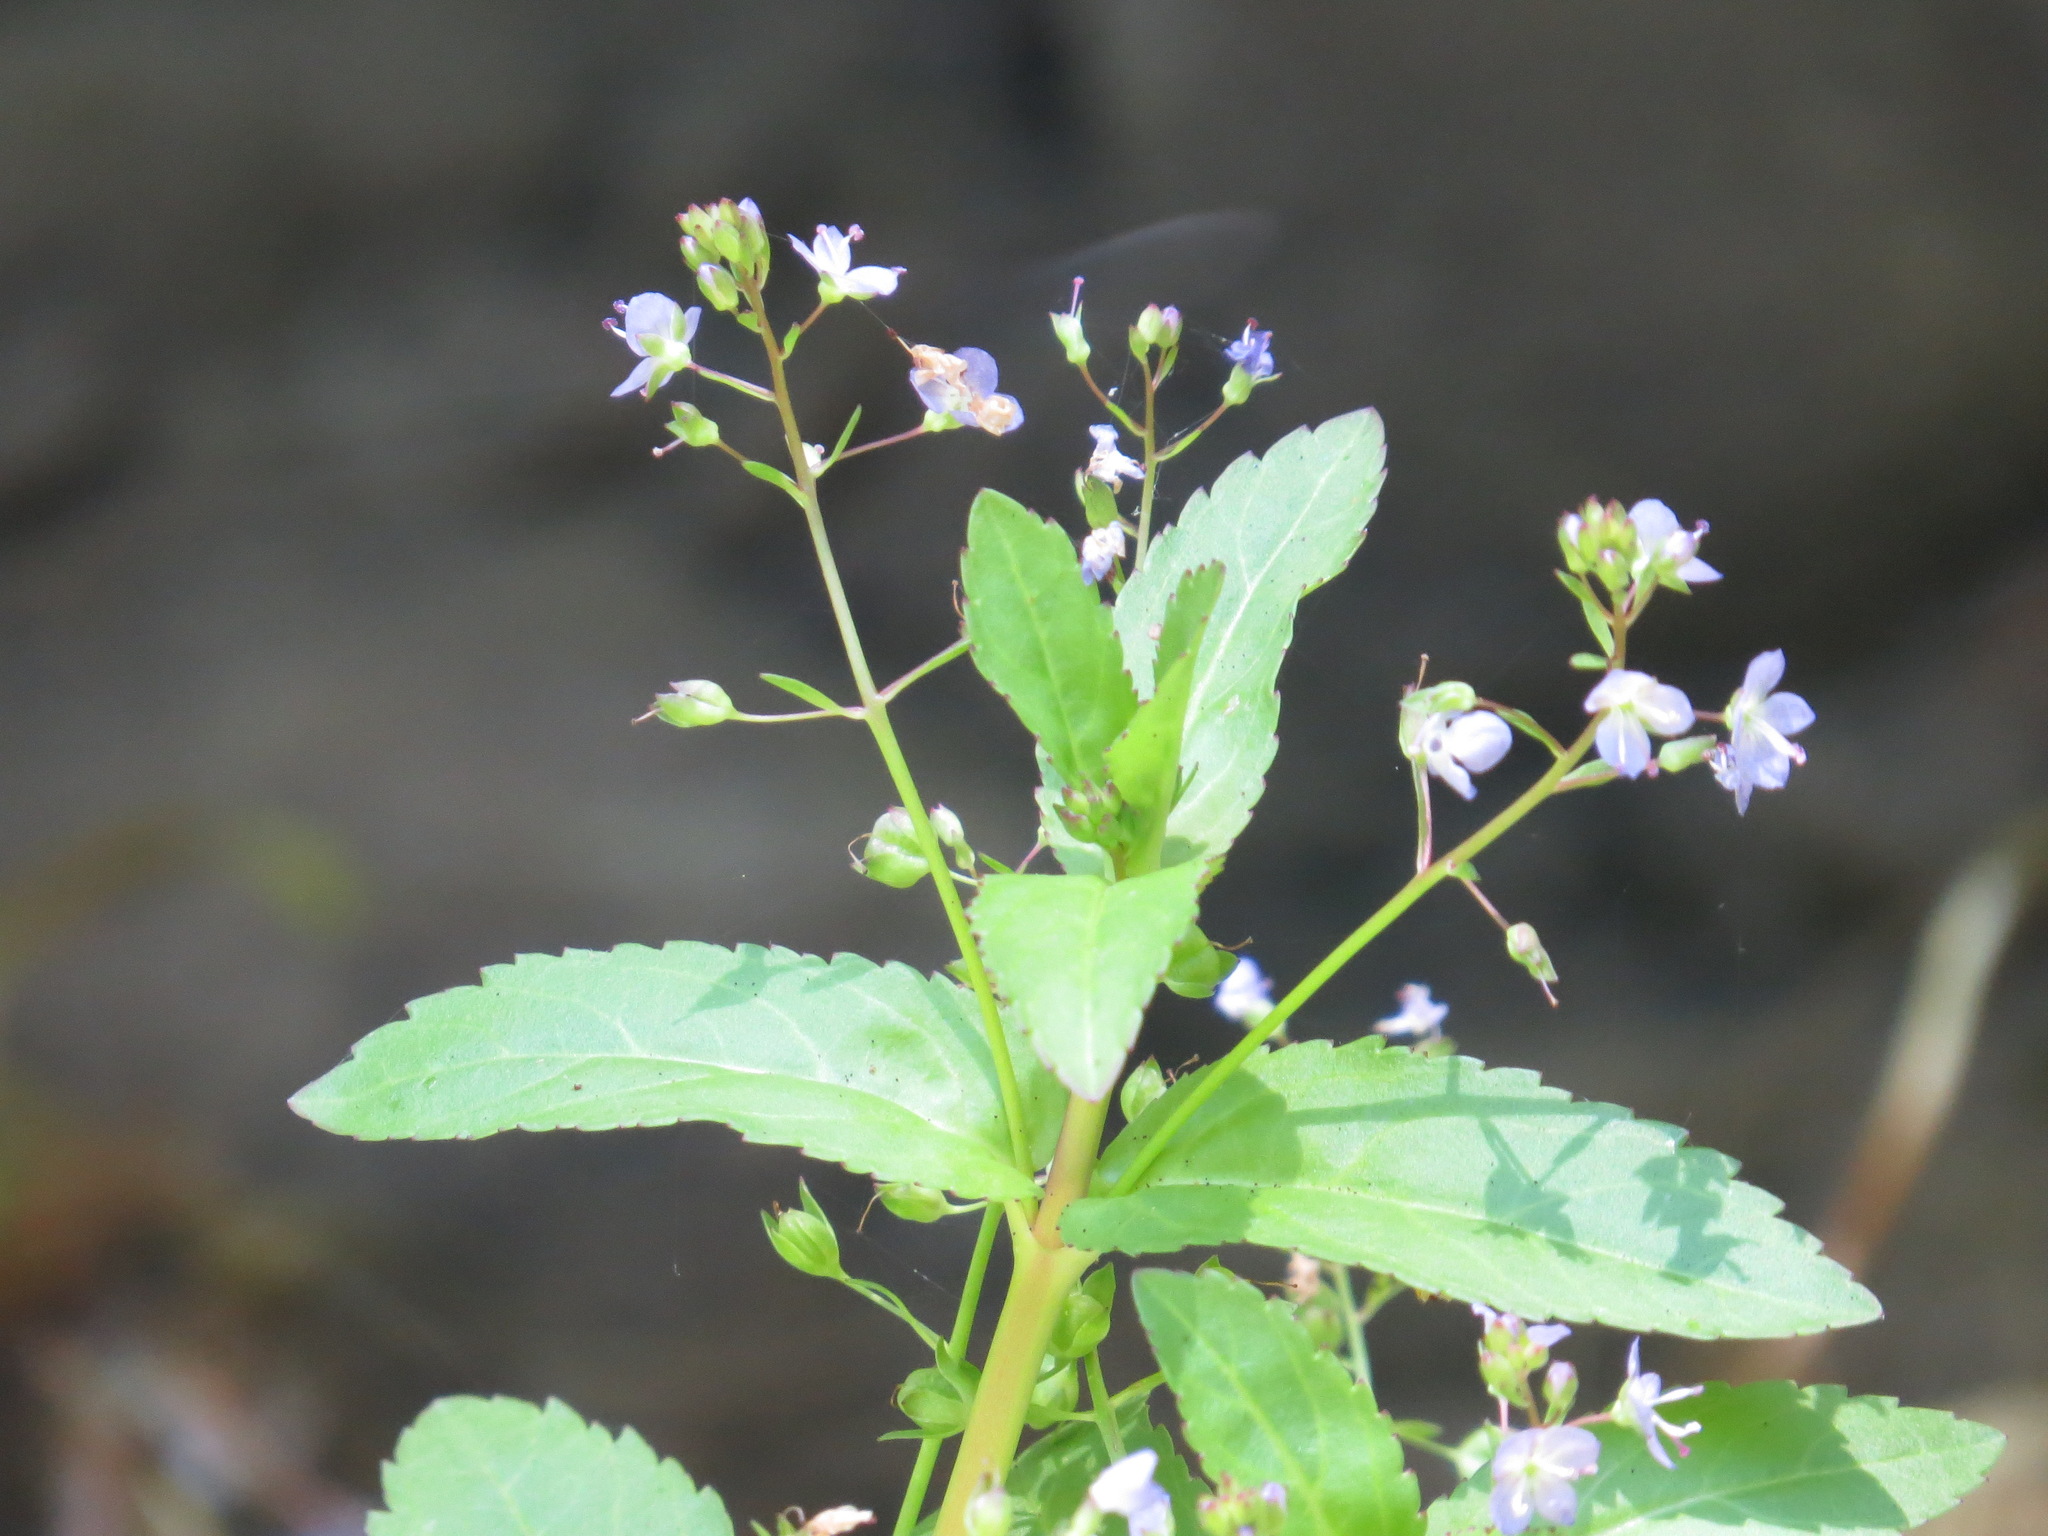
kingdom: Plantae
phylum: Tracheophyta
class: Magnoliopsida
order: Lamiales
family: Plantaginaceae
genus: Veronica
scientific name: Veronica americana
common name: American brooklime
